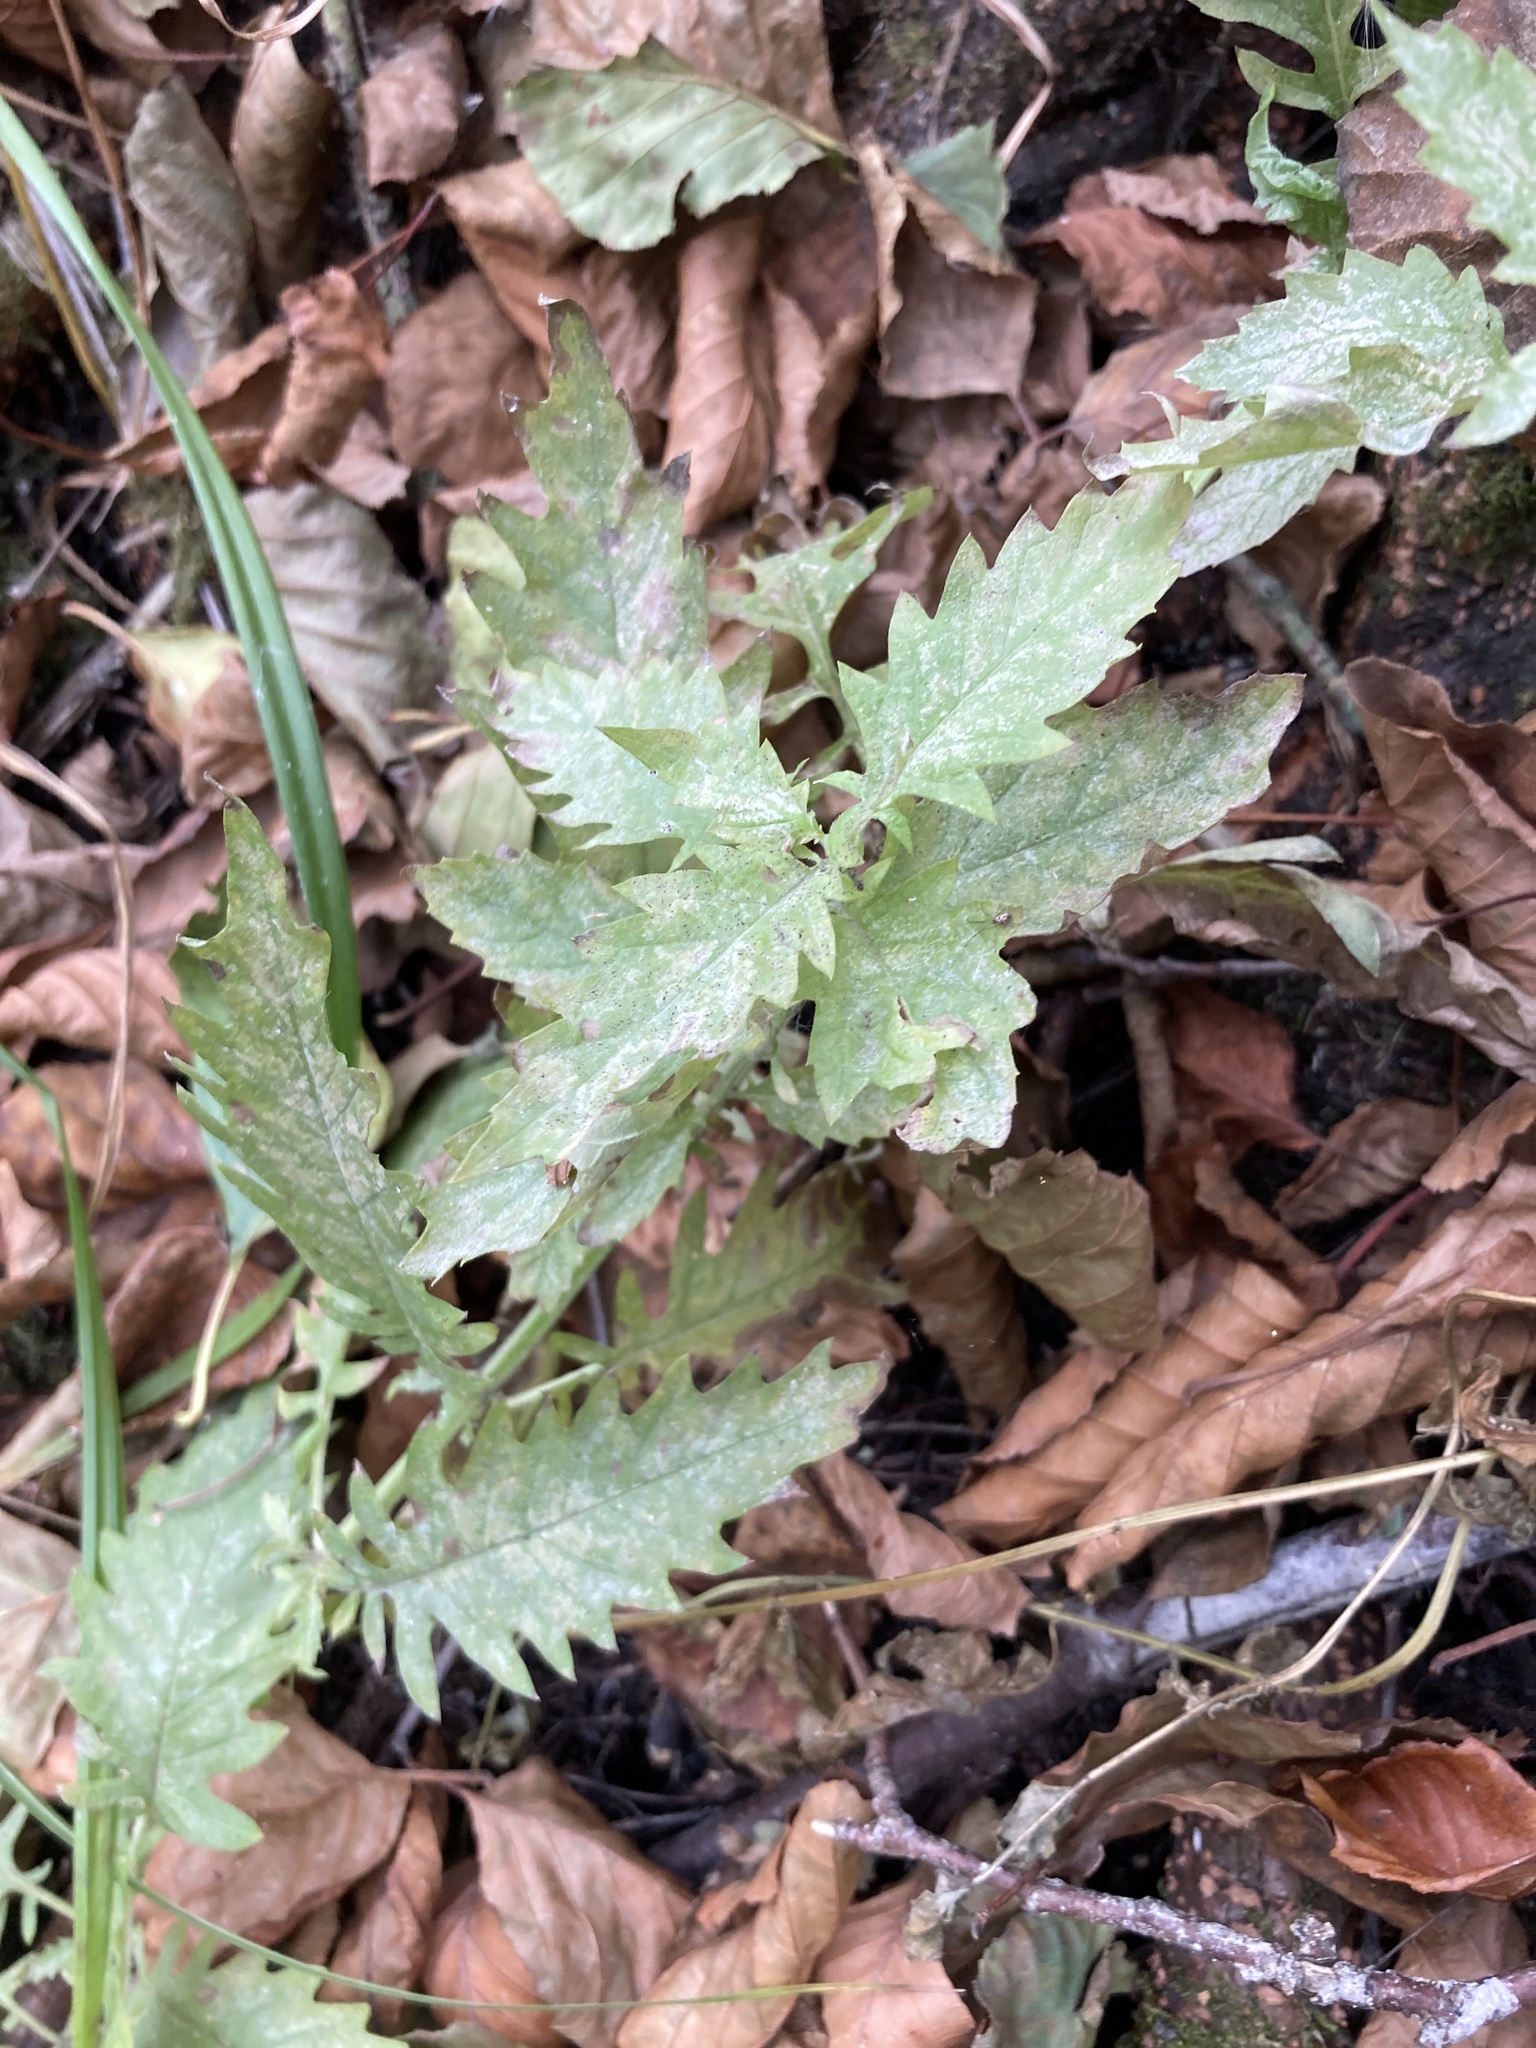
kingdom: Plantae
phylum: Tracheophyta
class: Magnoliopsida
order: Lamiales
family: Lamiaceae
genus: Lycopus
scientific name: Lycopus europaeus
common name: European bugleweed
